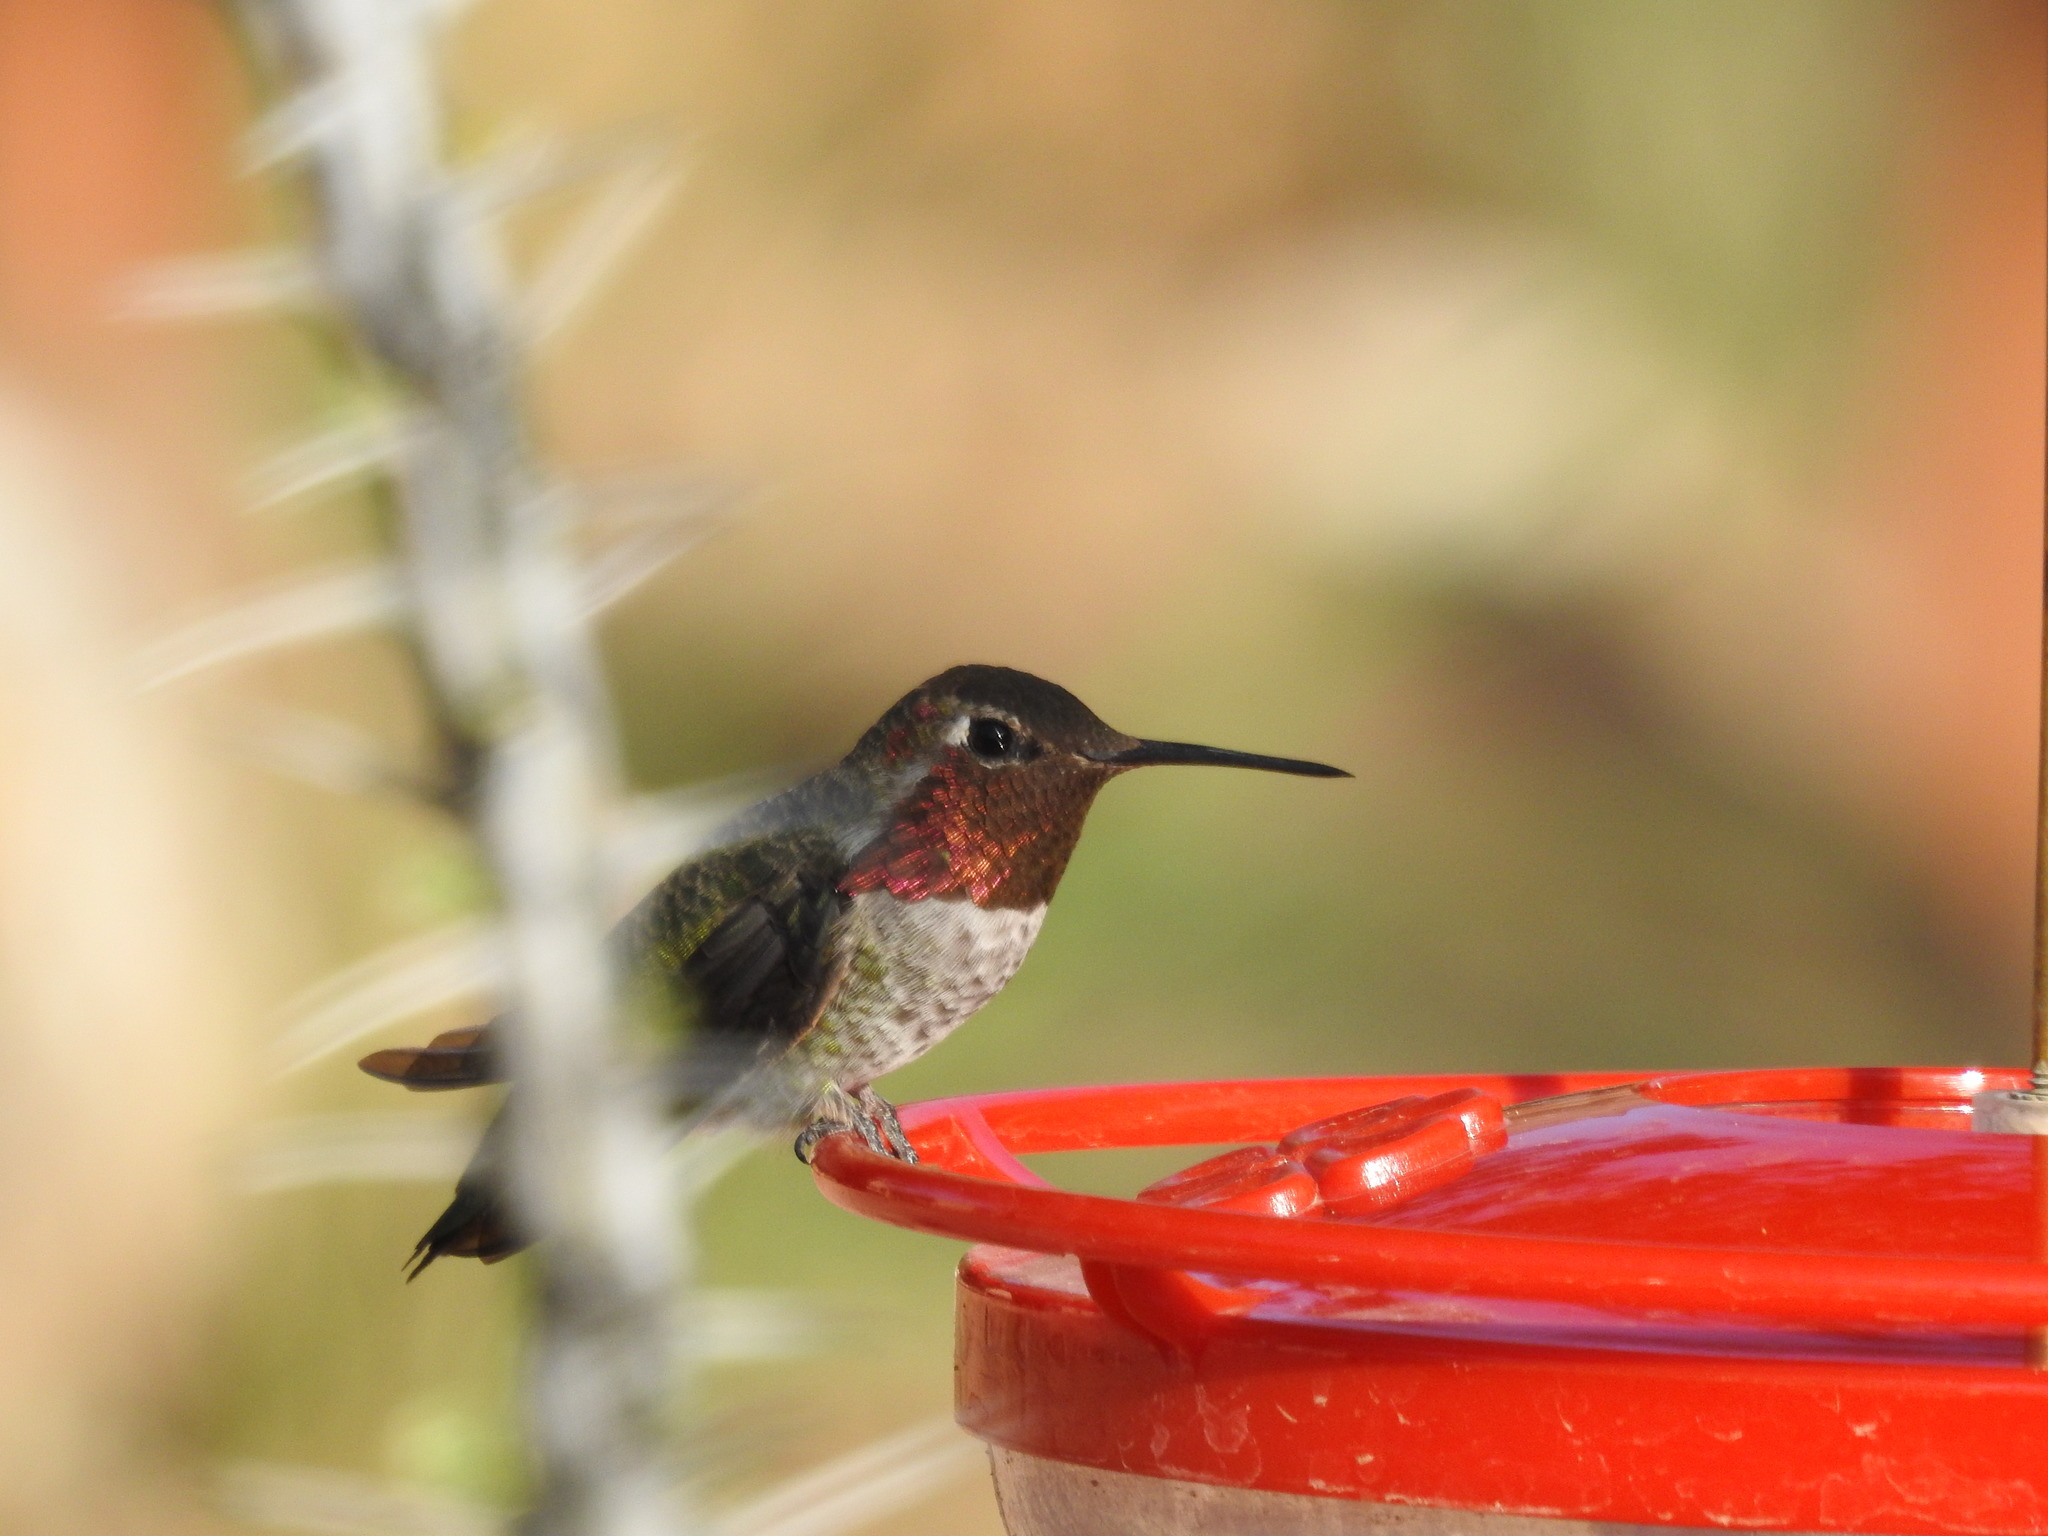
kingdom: Animalia
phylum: Chordata
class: Aves
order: Apodiformes
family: Trochilidae
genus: Calypte
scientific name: Calypte anna
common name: Anna's hummingbird
